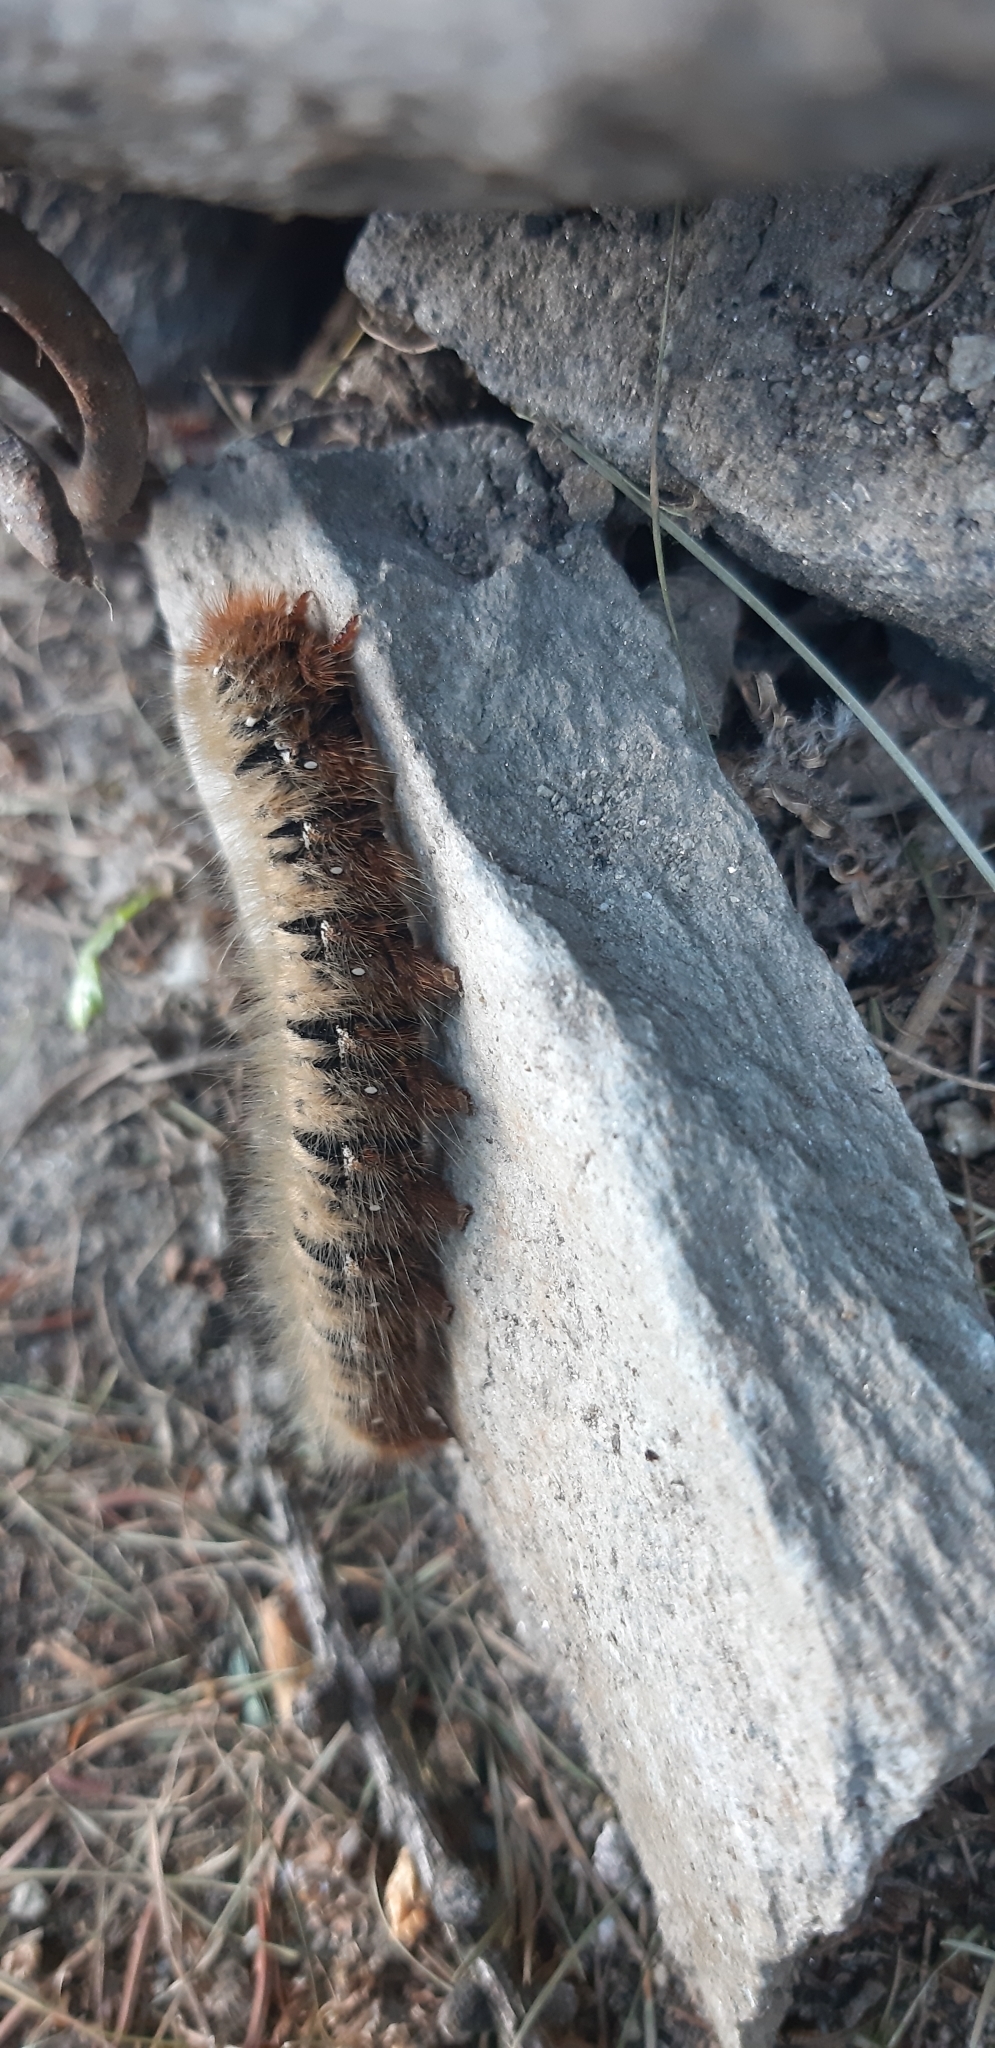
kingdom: Animalia
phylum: Arthropoda
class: Insecta
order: Lepidoptera
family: Lasiocampidae
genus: Lasiocampa
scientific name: Lasiocampa quercus
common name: Oak eggar
